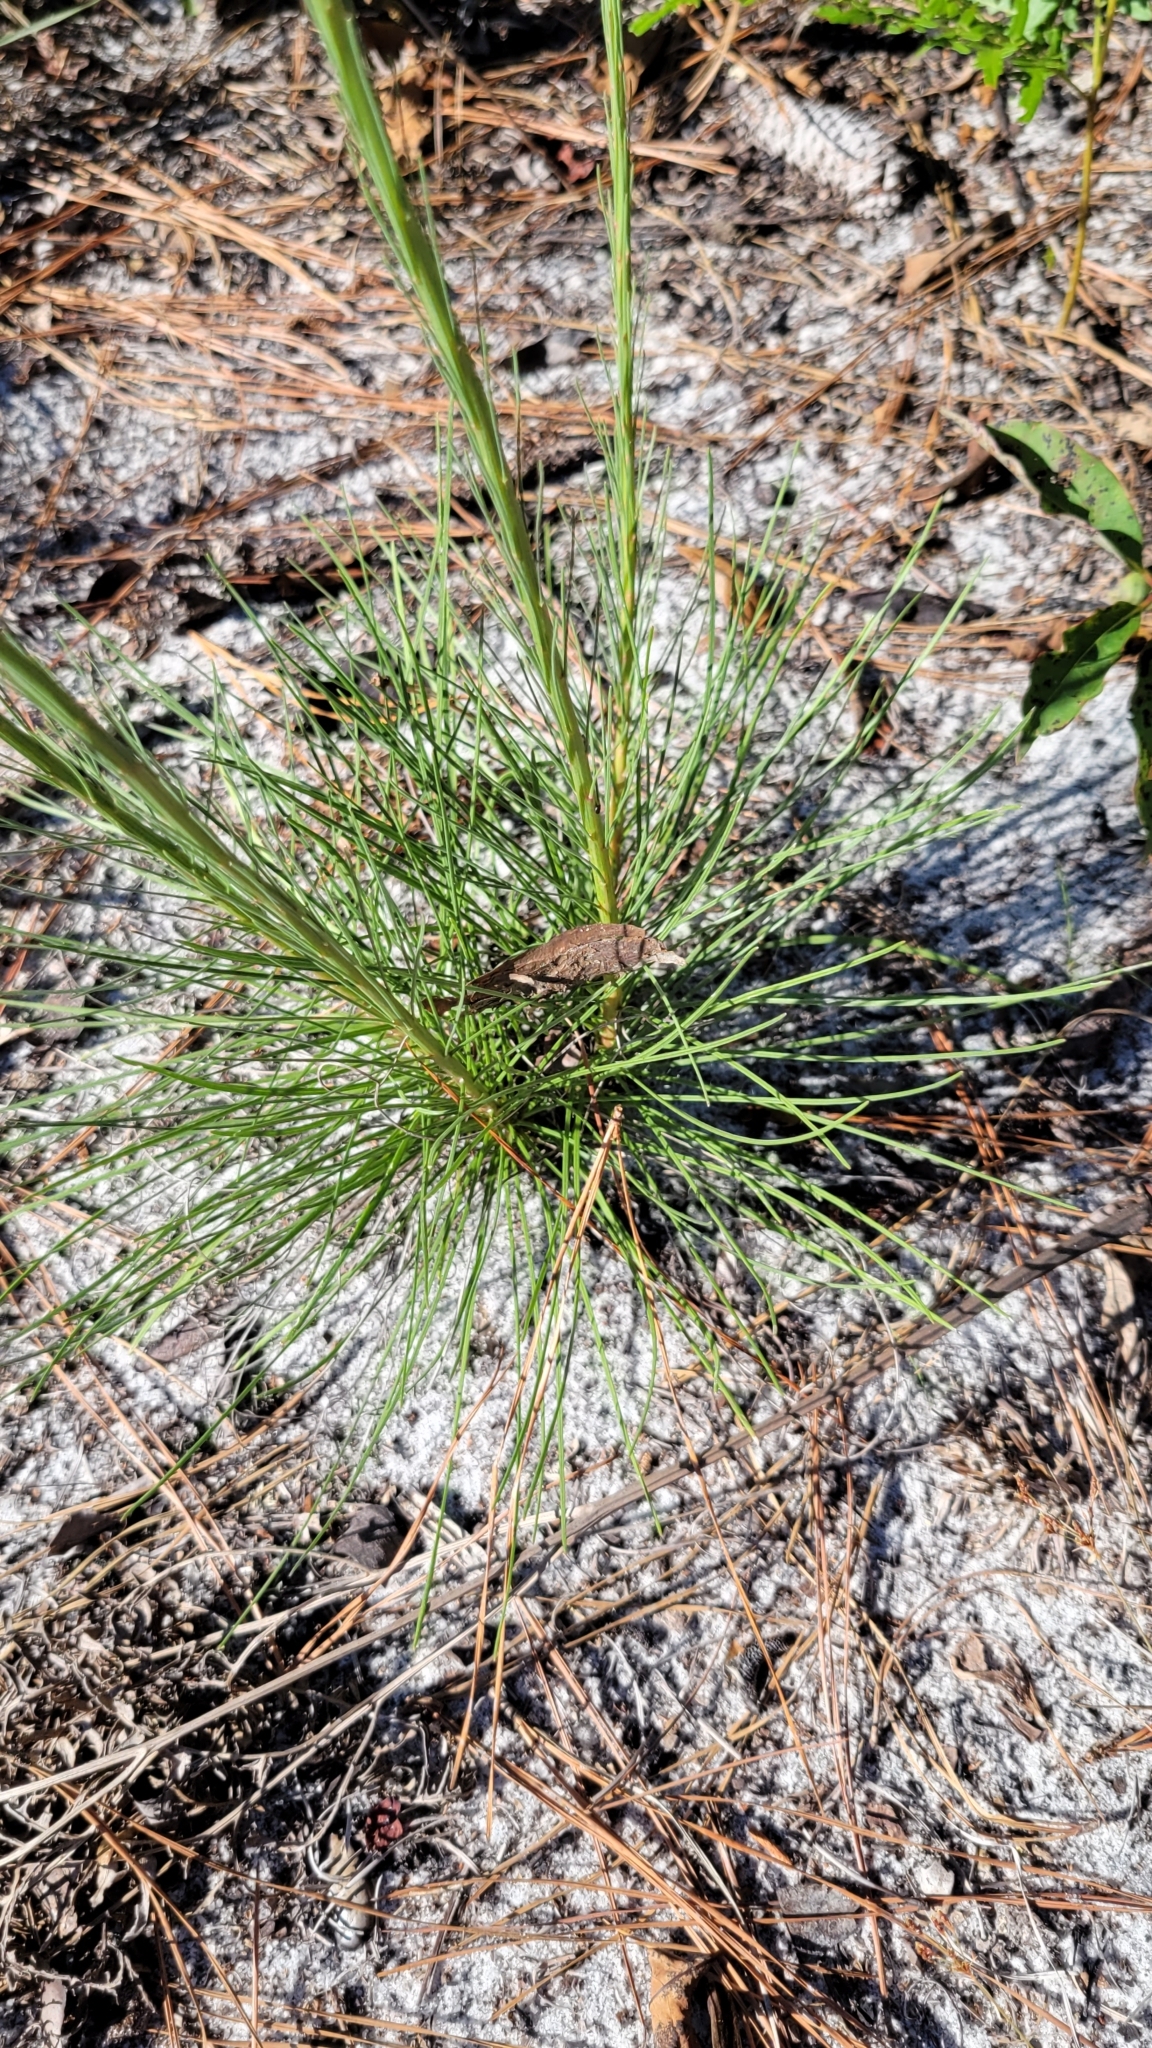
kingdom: Plantae
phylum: Tracheophyta
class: Magnoliopsida
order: Asterales
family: Asteraceae
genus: Liatris
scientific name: Liatris tenuifolia
